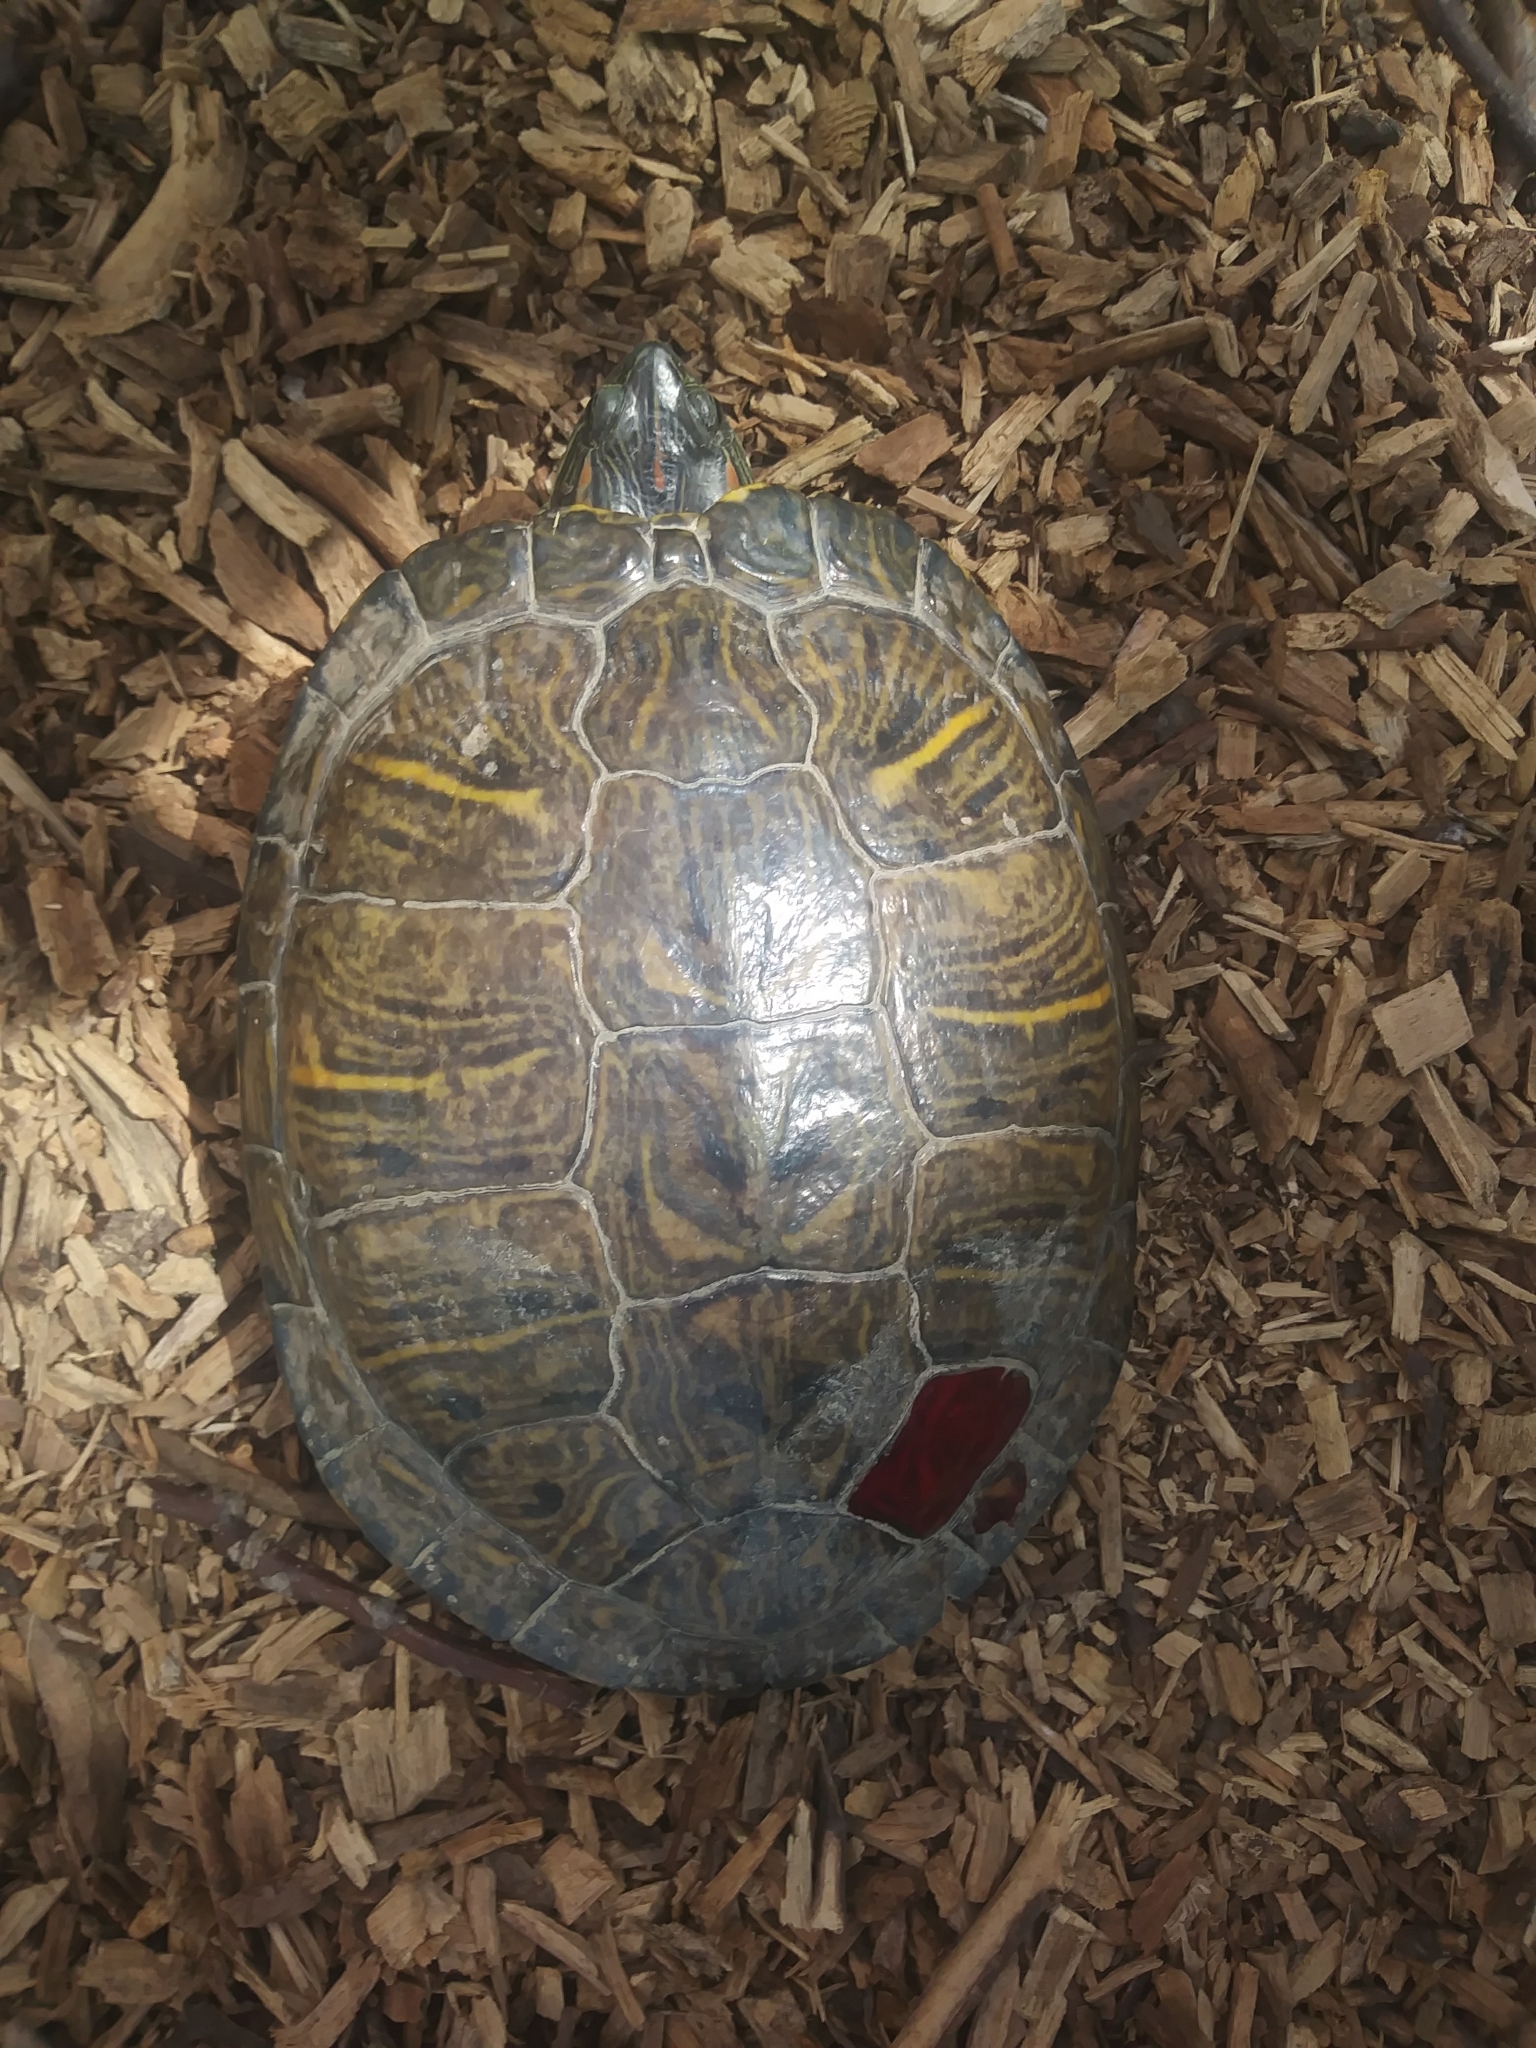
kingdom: Animalia
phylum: Chordata
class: Testudines
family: Emydidae
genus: Trachemys
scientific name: Trachemys scripta
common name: Slider
